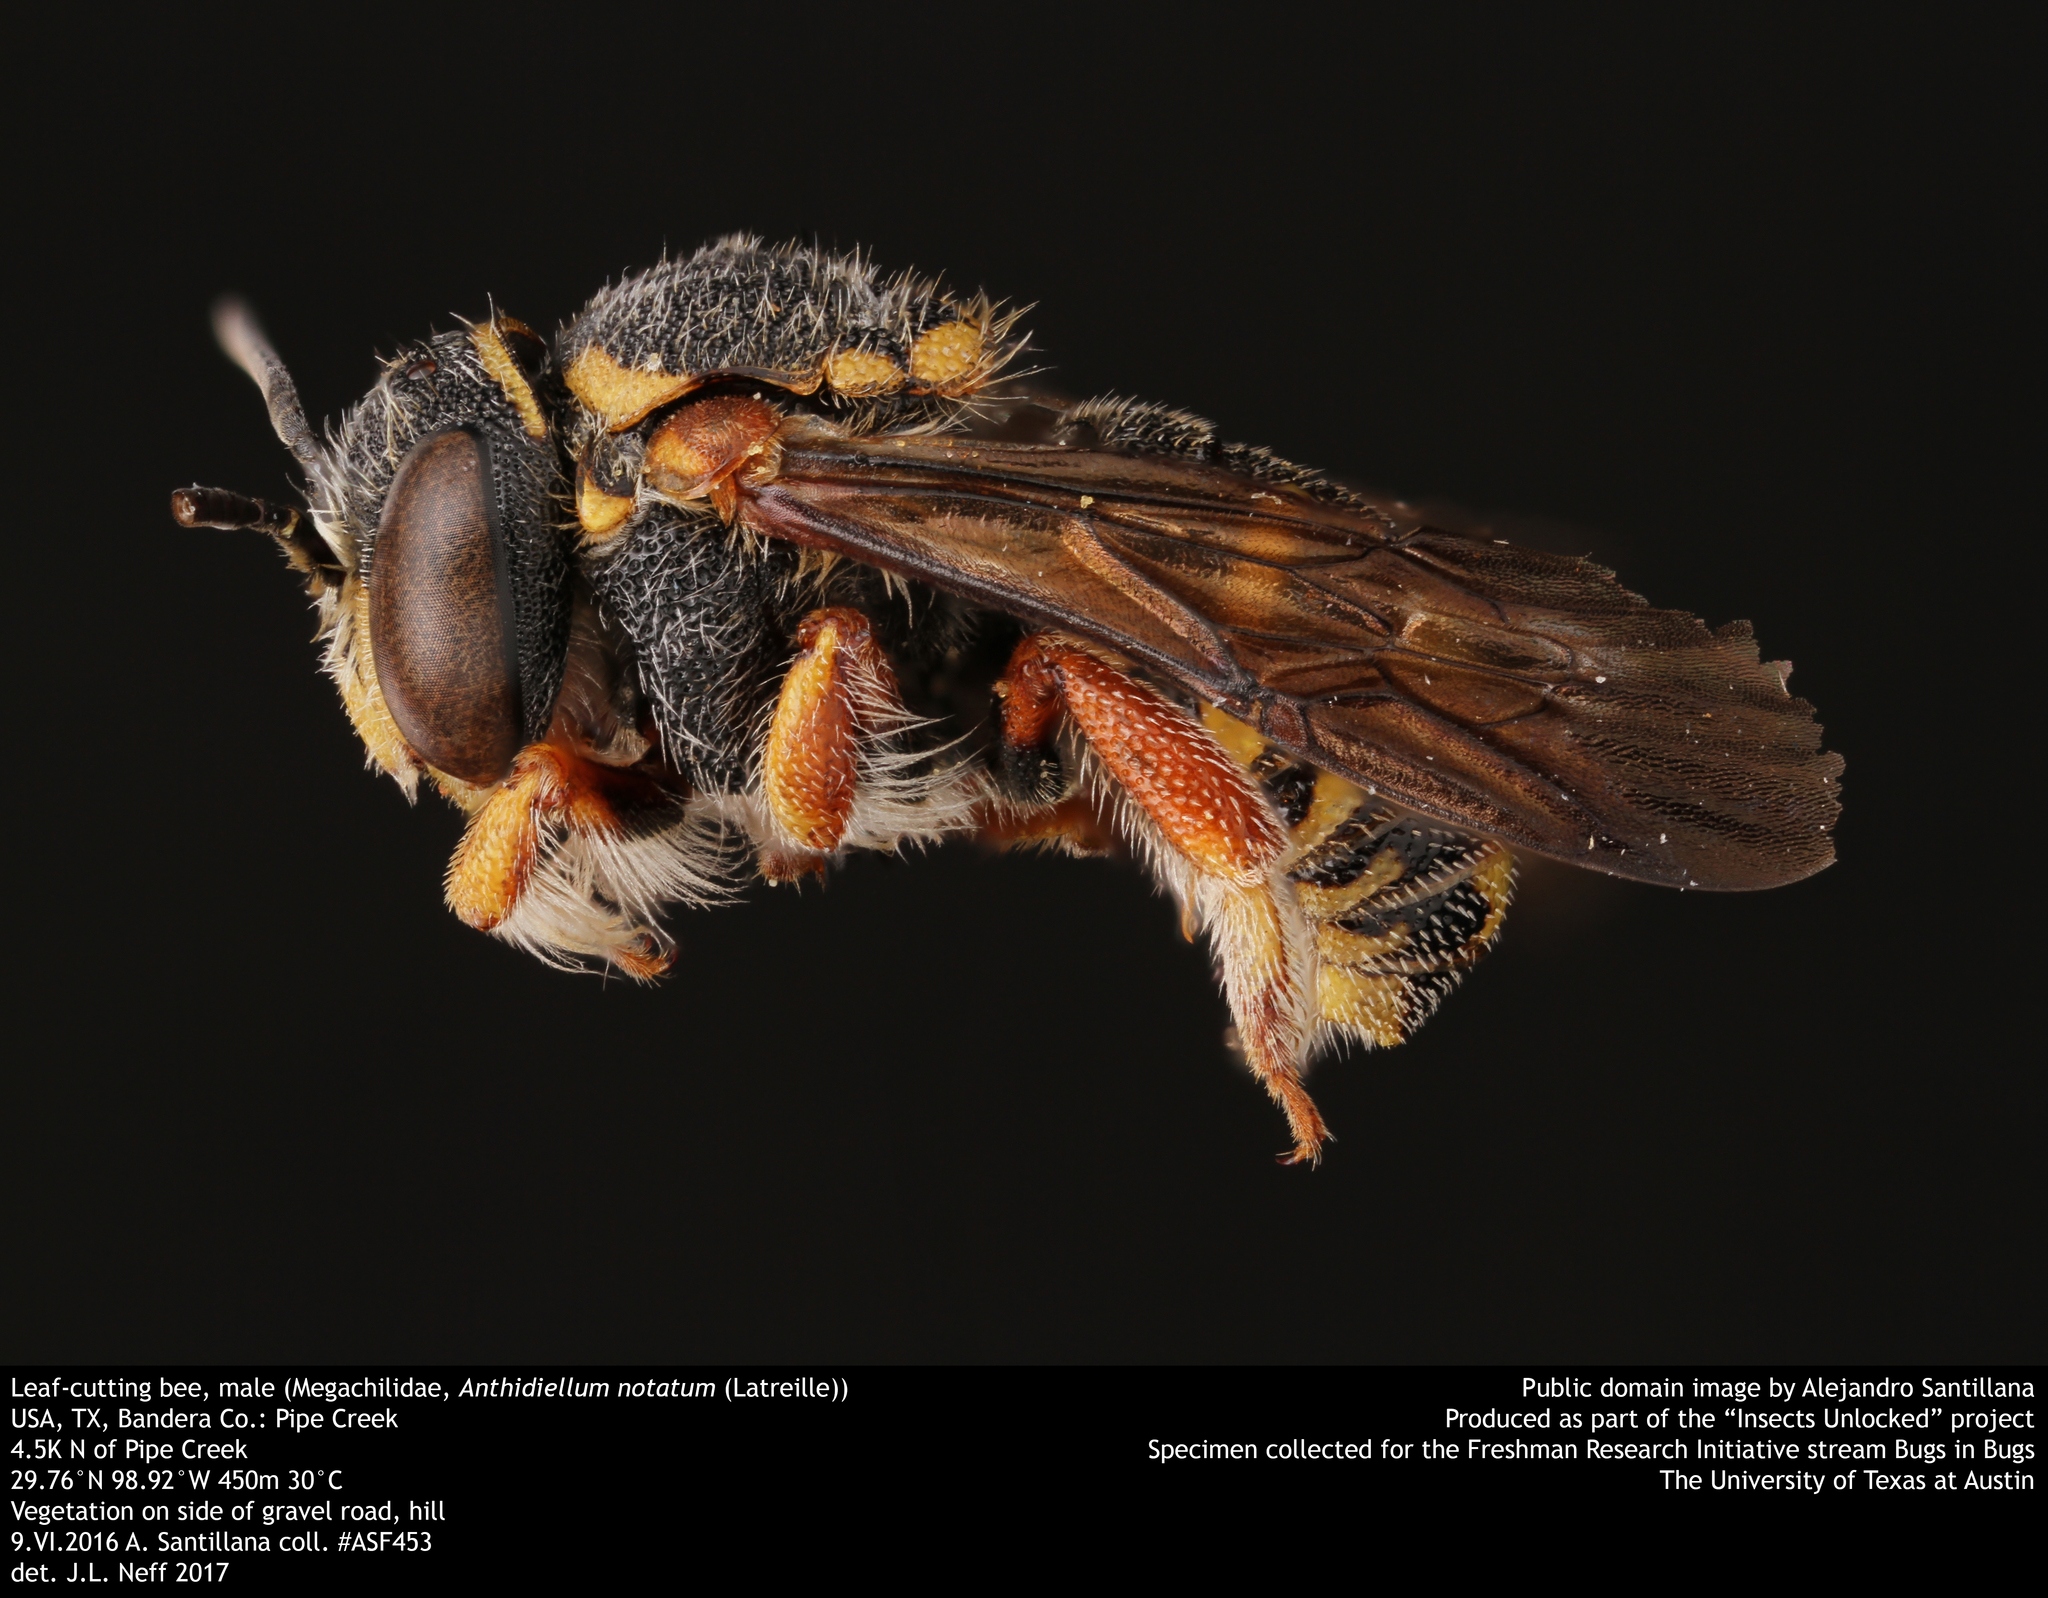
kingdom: Animalia
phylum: Arthropoda
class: Insecta
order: Hymenoptera
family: Megachilidae
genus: Anthidiellum
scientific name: Anthidiellum notatum
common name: Northern rotund-resin bee
